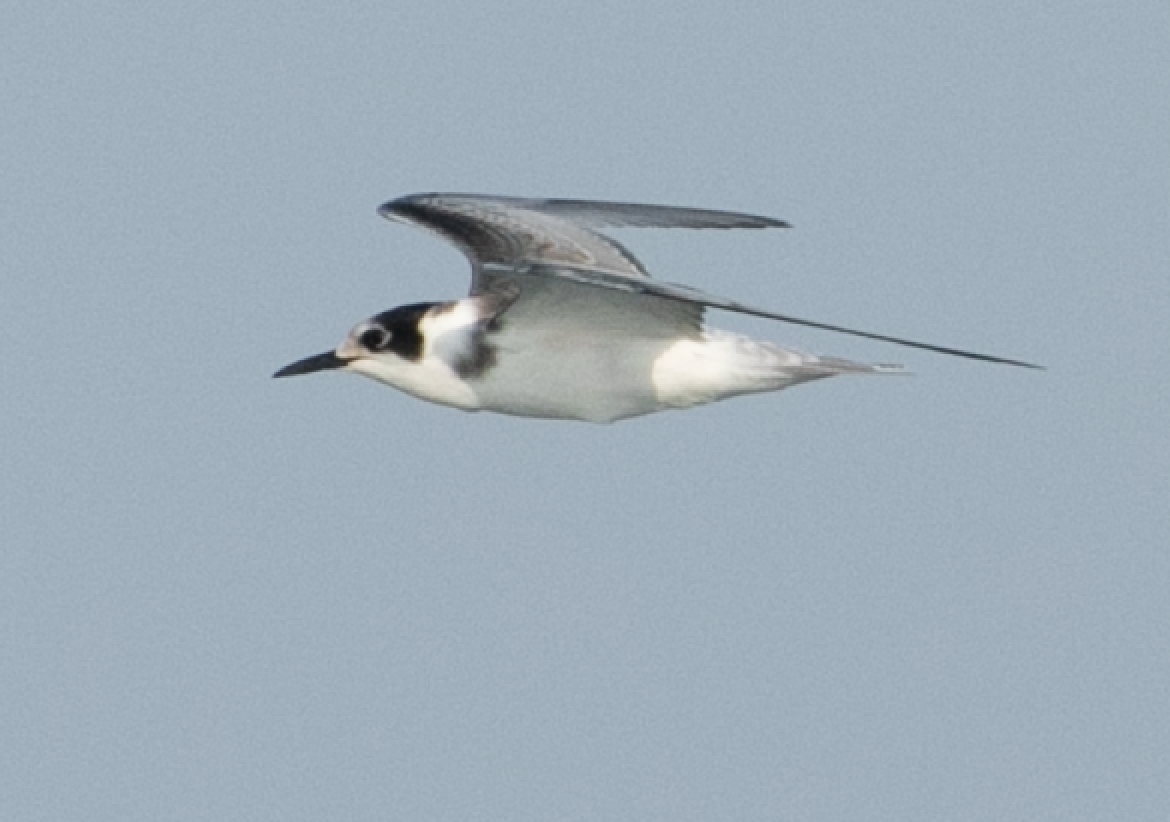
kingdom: Animalia
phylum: Chordata
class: Aves
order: Charadriiformes
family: Laridae
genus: Chlidonias
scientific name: Chlidonias niger
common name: Black tern
